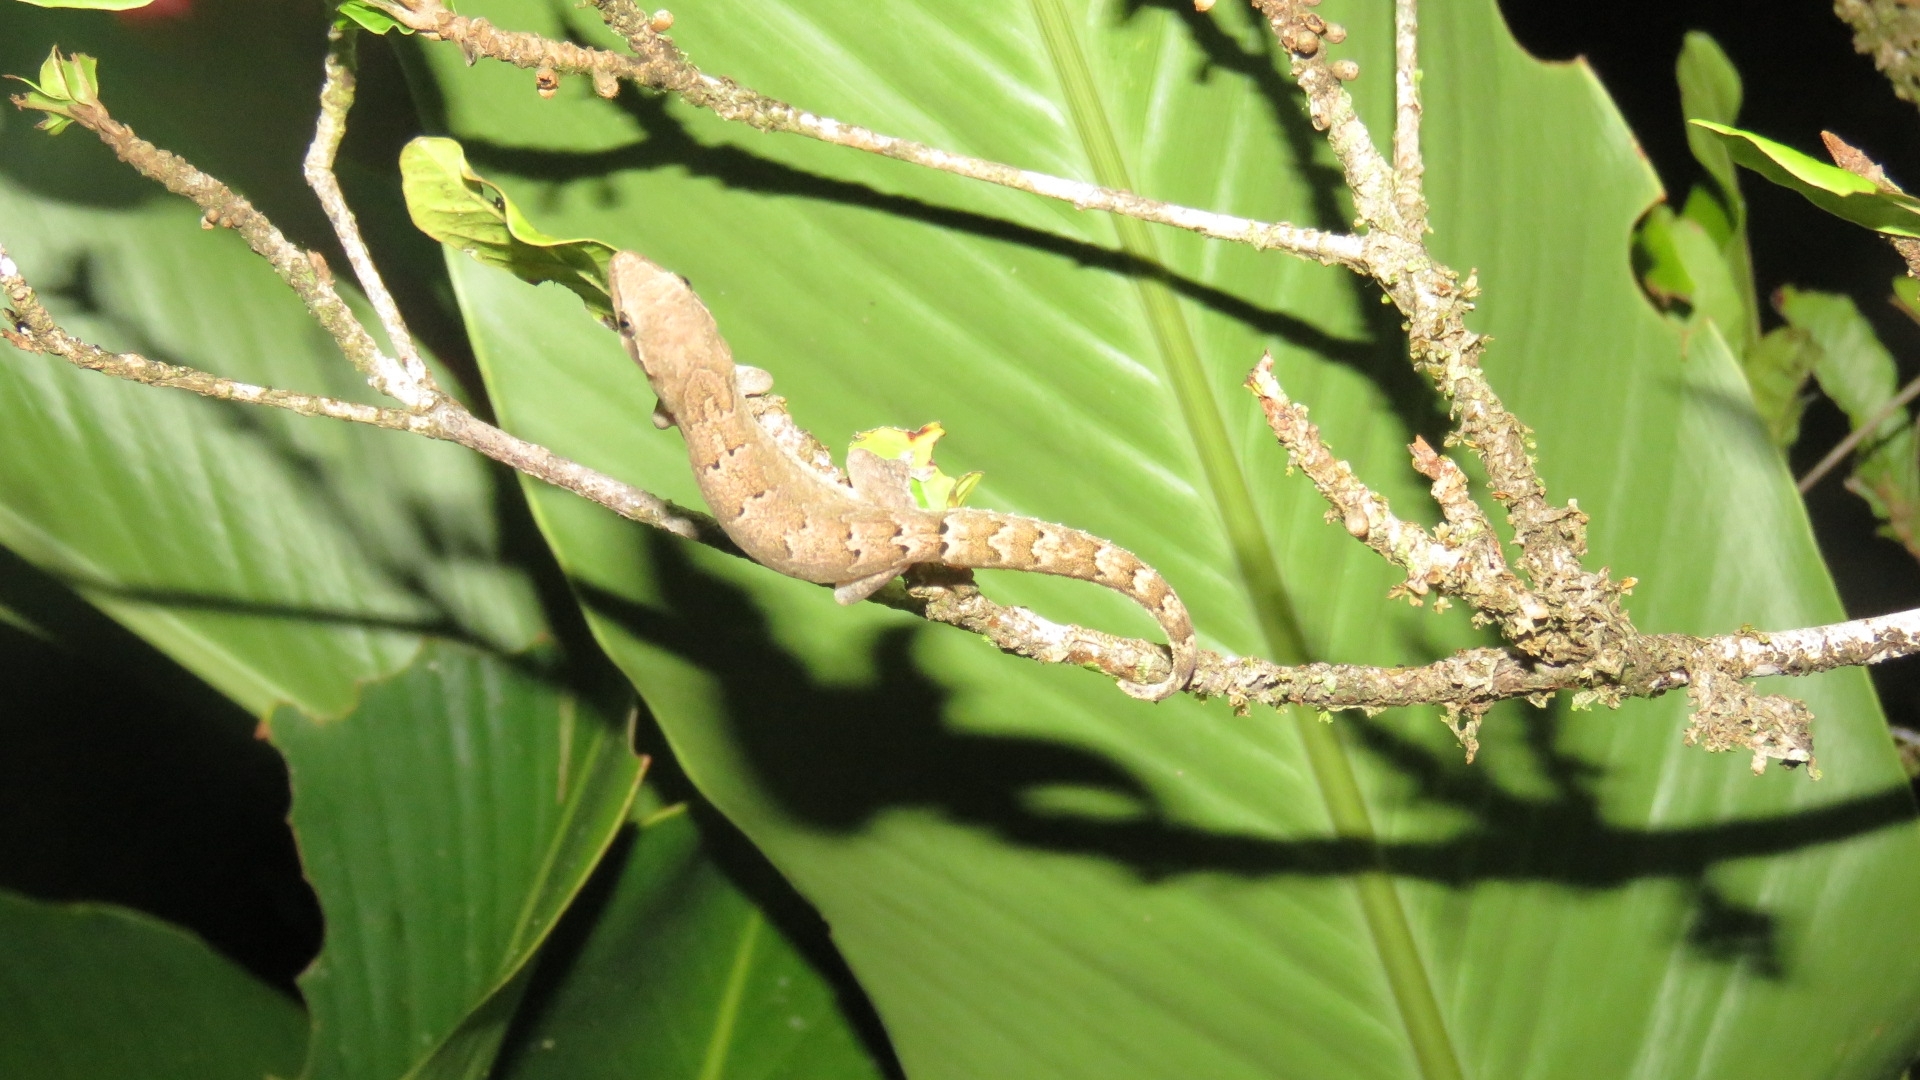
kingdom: Animalia
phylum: Chordata
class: Squamata
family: Gekkonidae
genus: Lepidodactylus
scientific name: Lepidodactylus lugubris
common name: Mourning gecko
